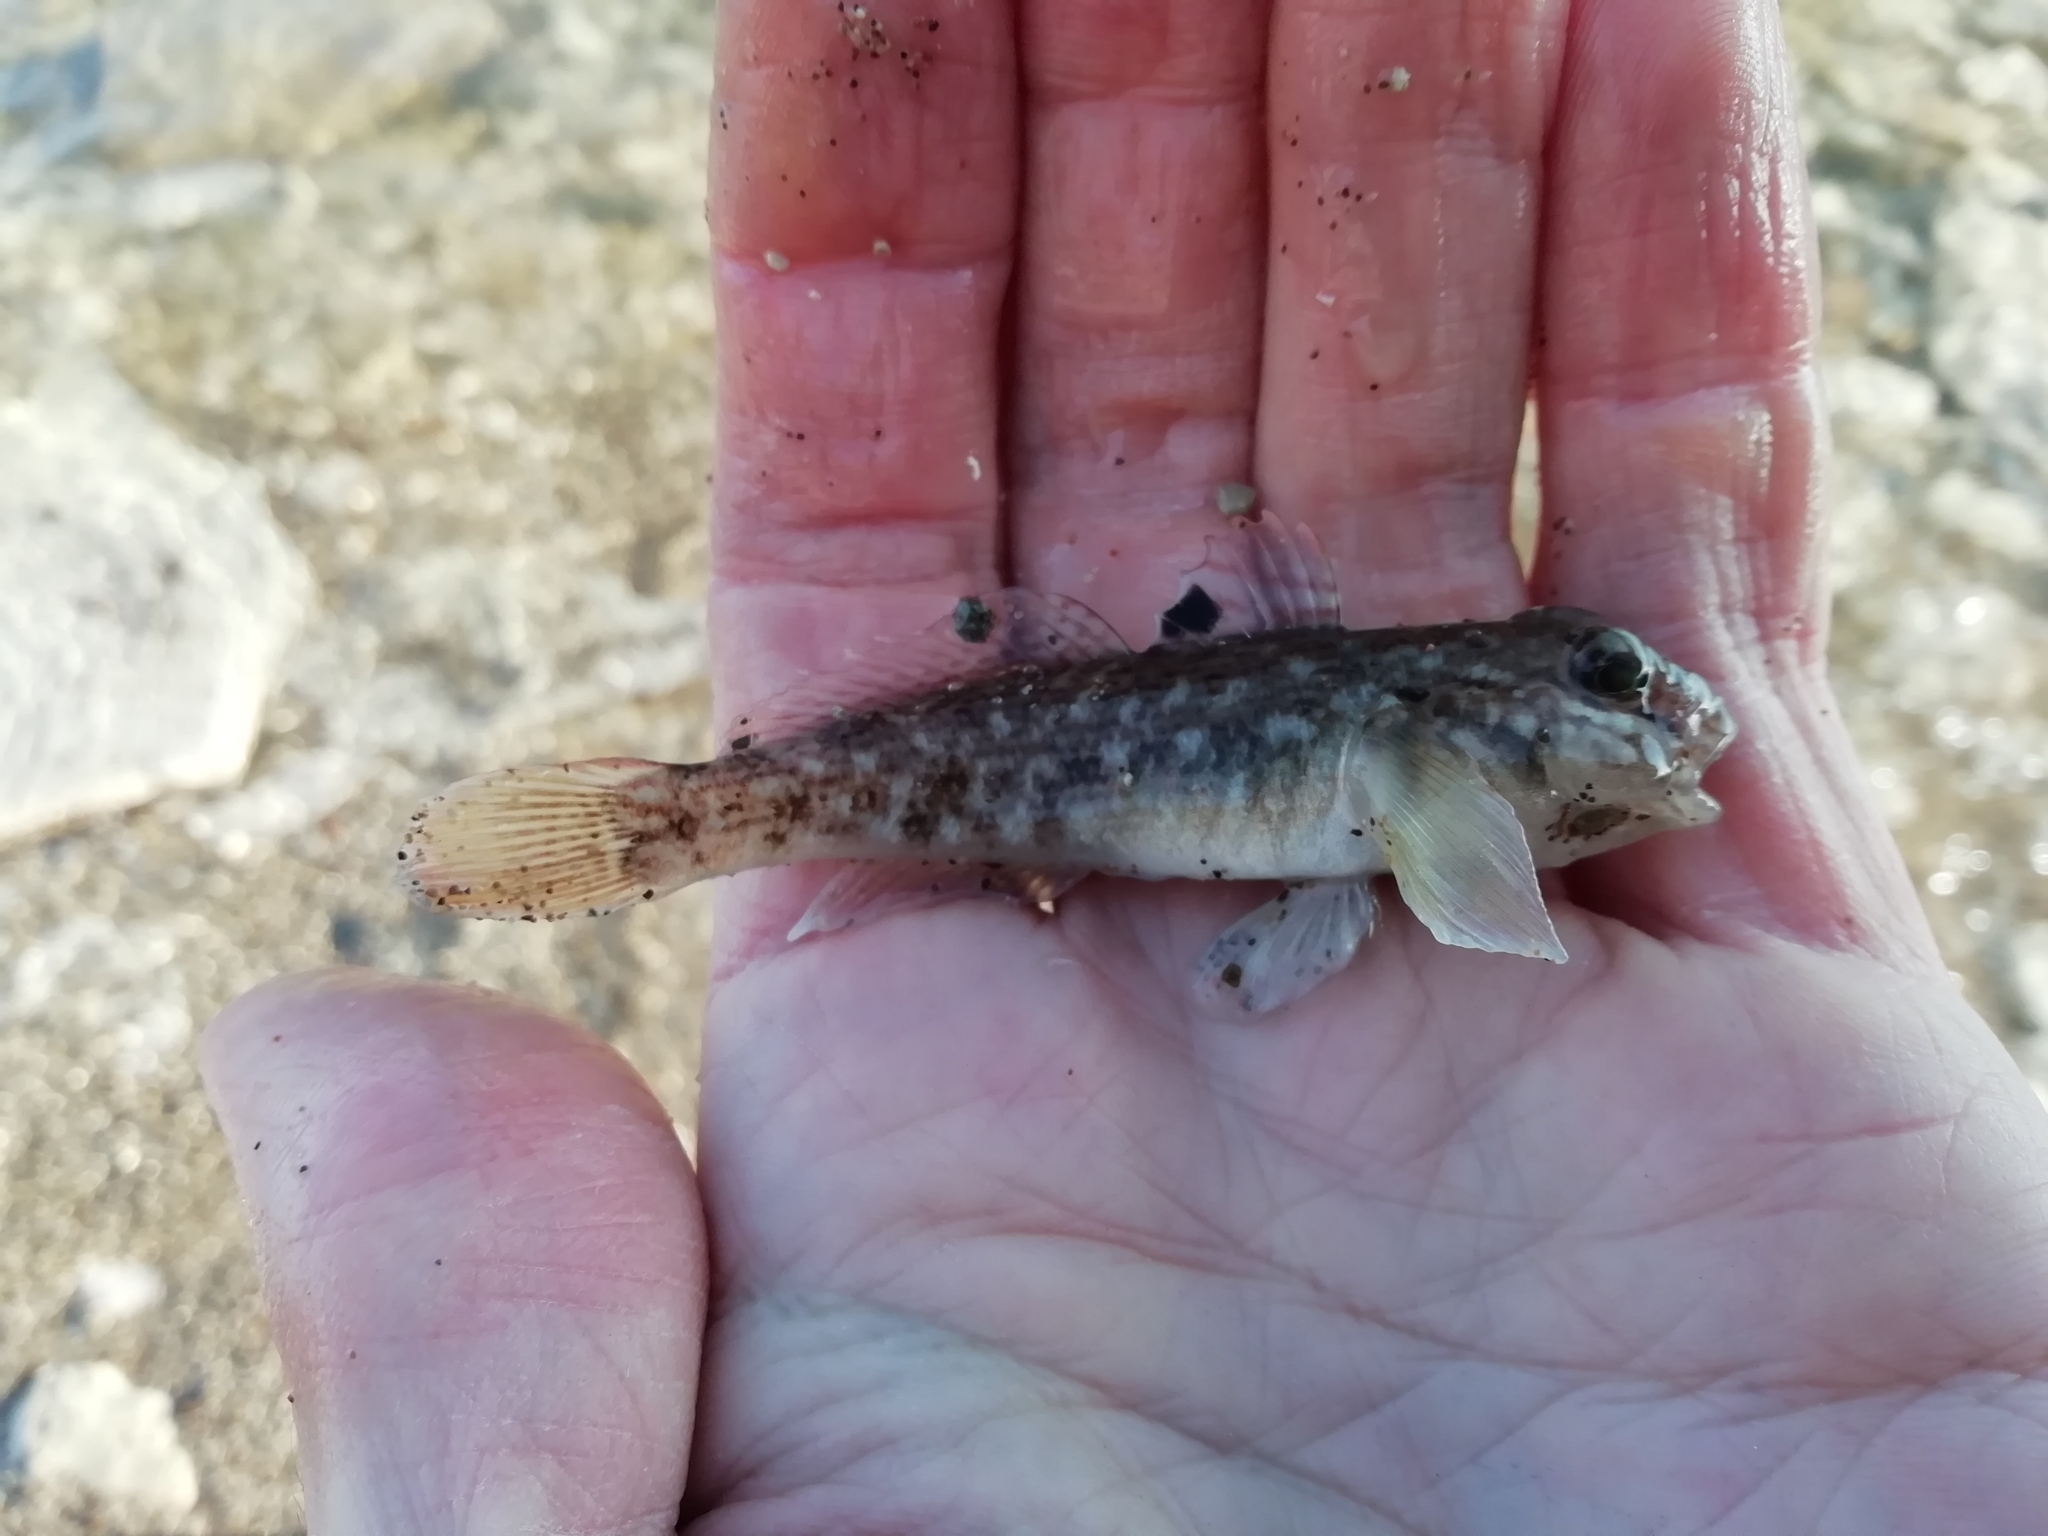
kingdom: Animalia
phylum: Chordata
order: Perciformes
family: Gobiidae
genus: Neogobius
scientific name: Neogobius melanostomus
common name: Round goby
